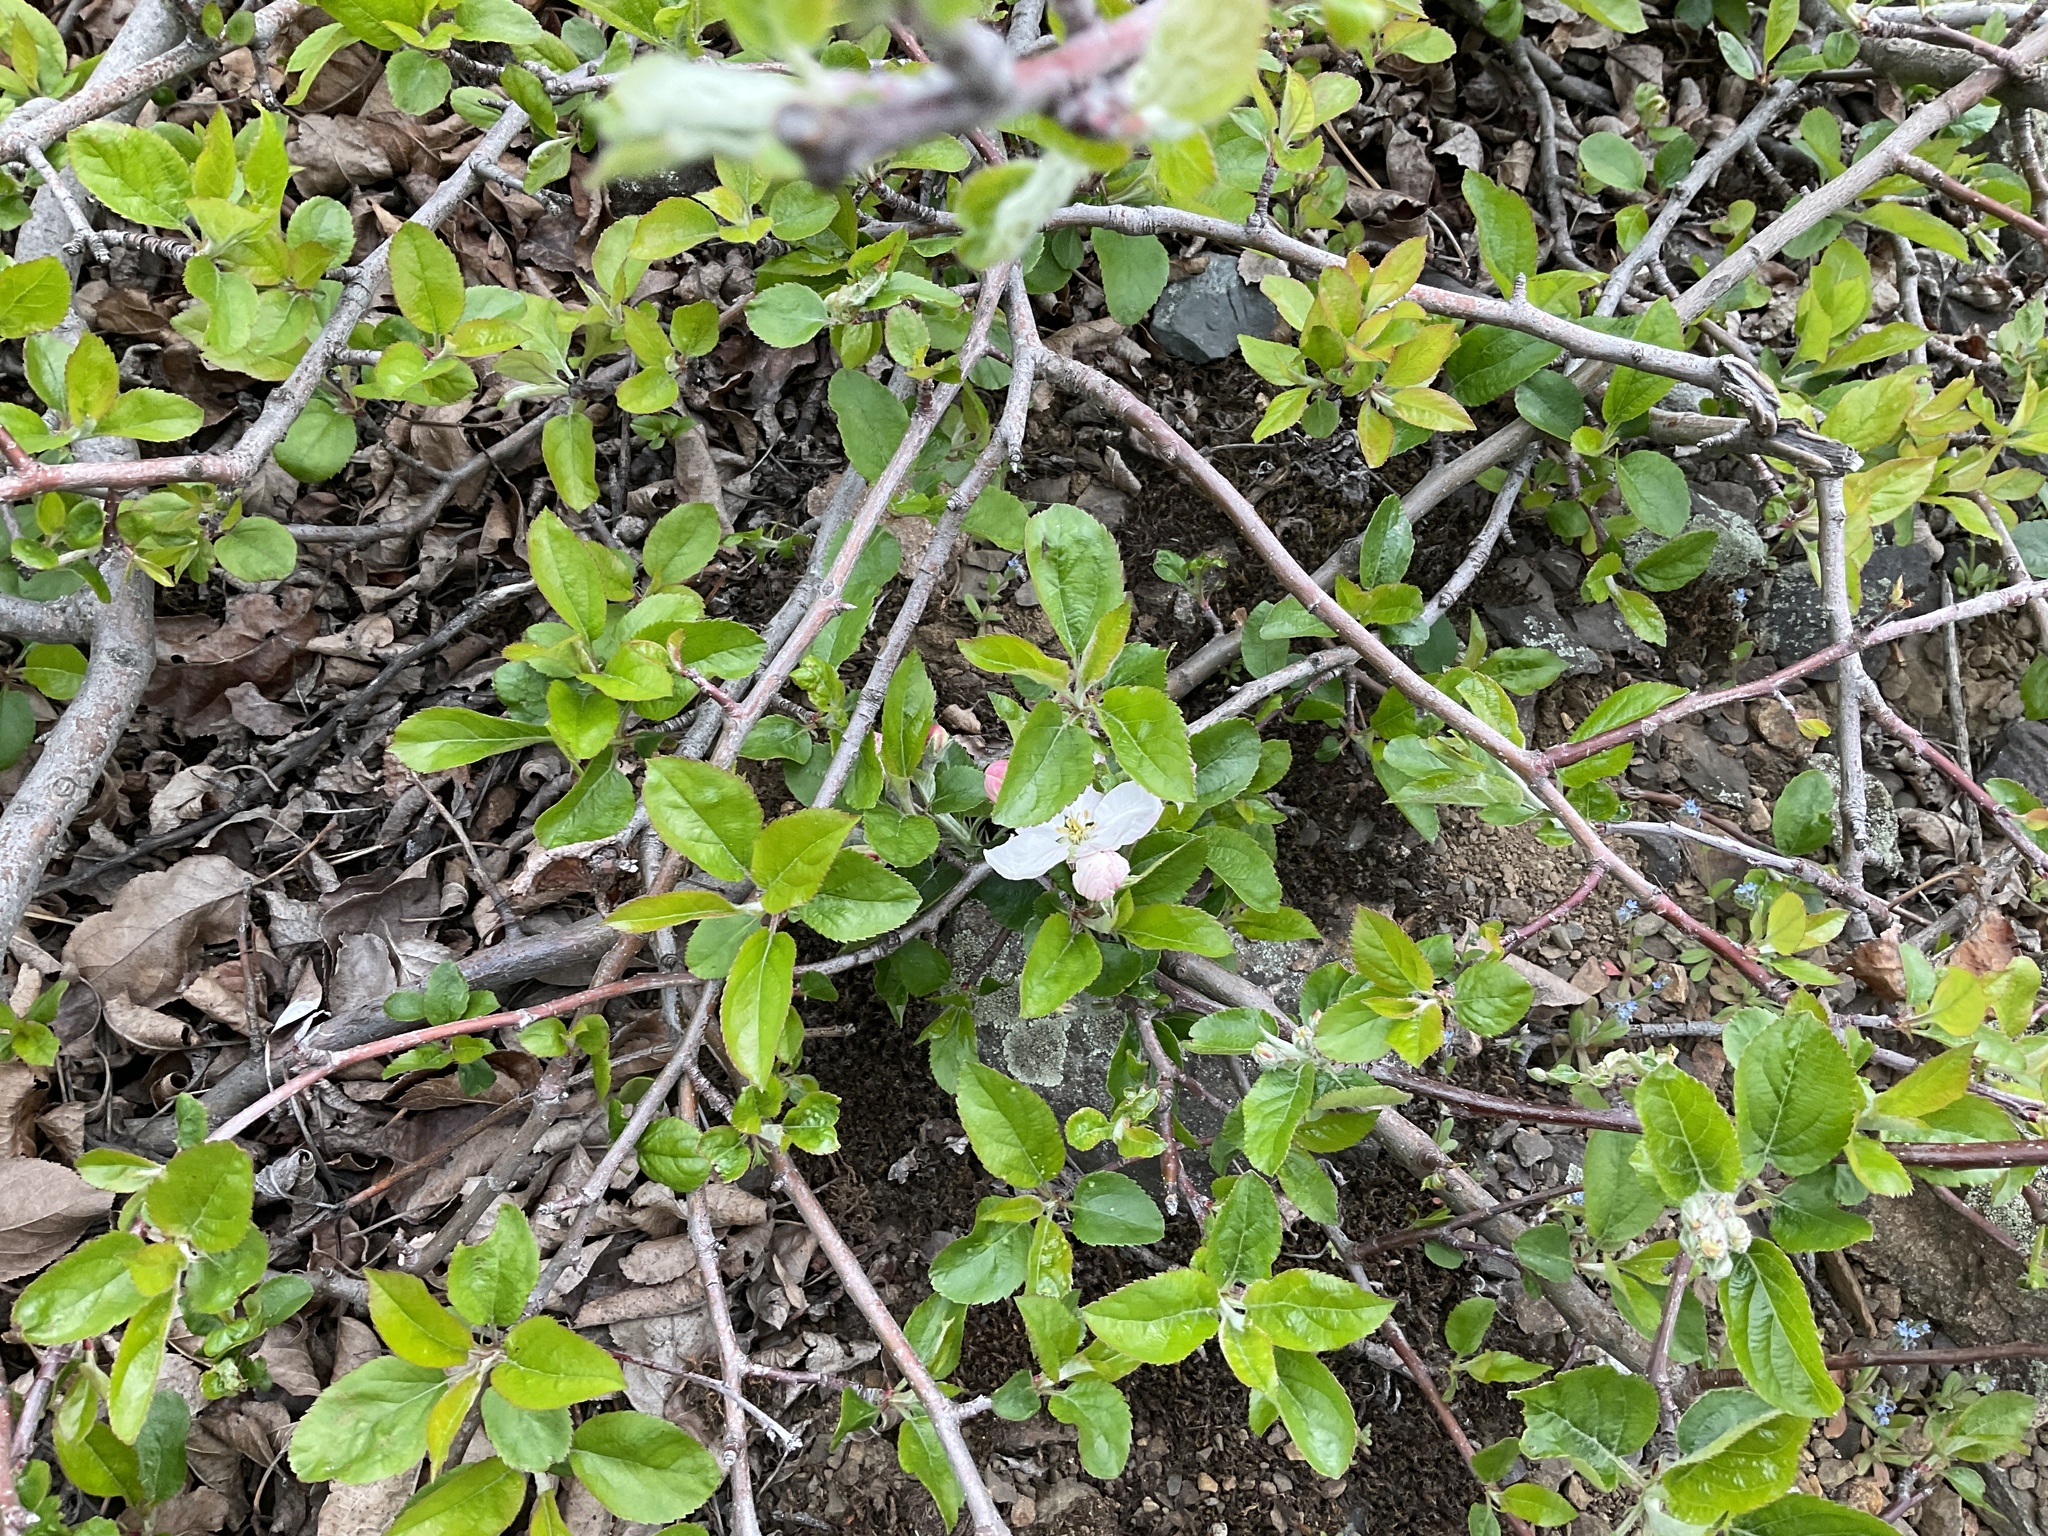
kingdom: Plantae
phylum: Tracheophyta
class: Magnoliopsida
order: Rosales
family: Rosaceae
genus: Malus
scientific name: Malus domestica
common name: Apple
